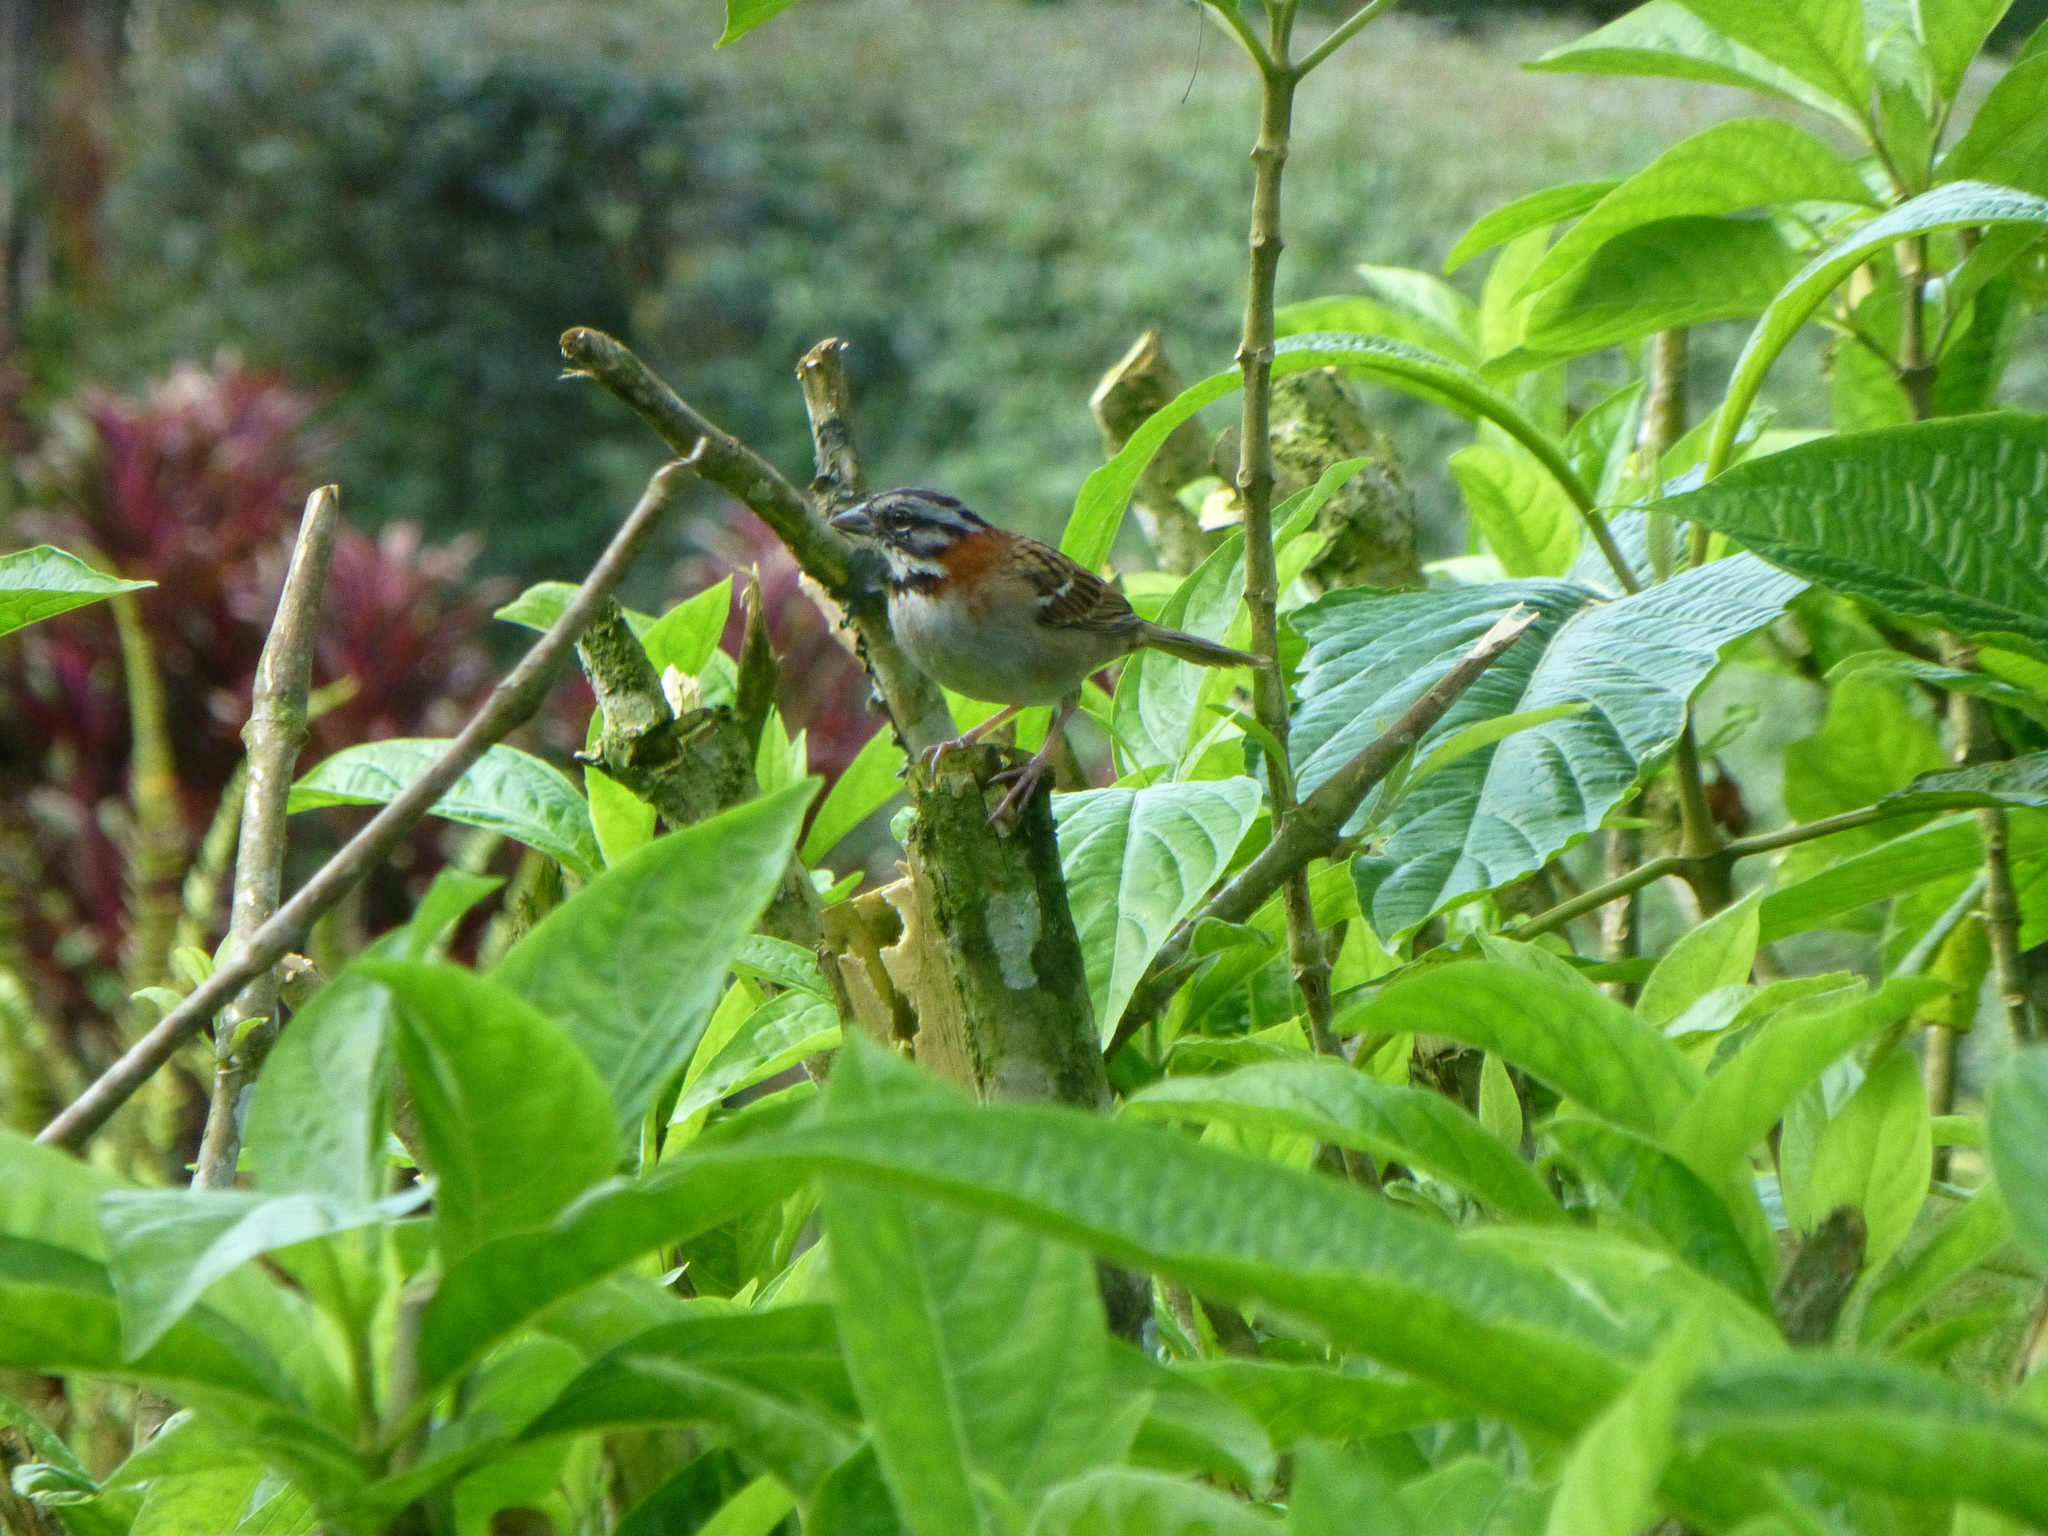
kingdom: Animalia
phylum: Chordata
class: Aves
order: Passeriformes
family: Passerellidae
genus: Zonotrichia
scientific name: Zonotrichia capensis
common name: Rufous-collared sparrow
